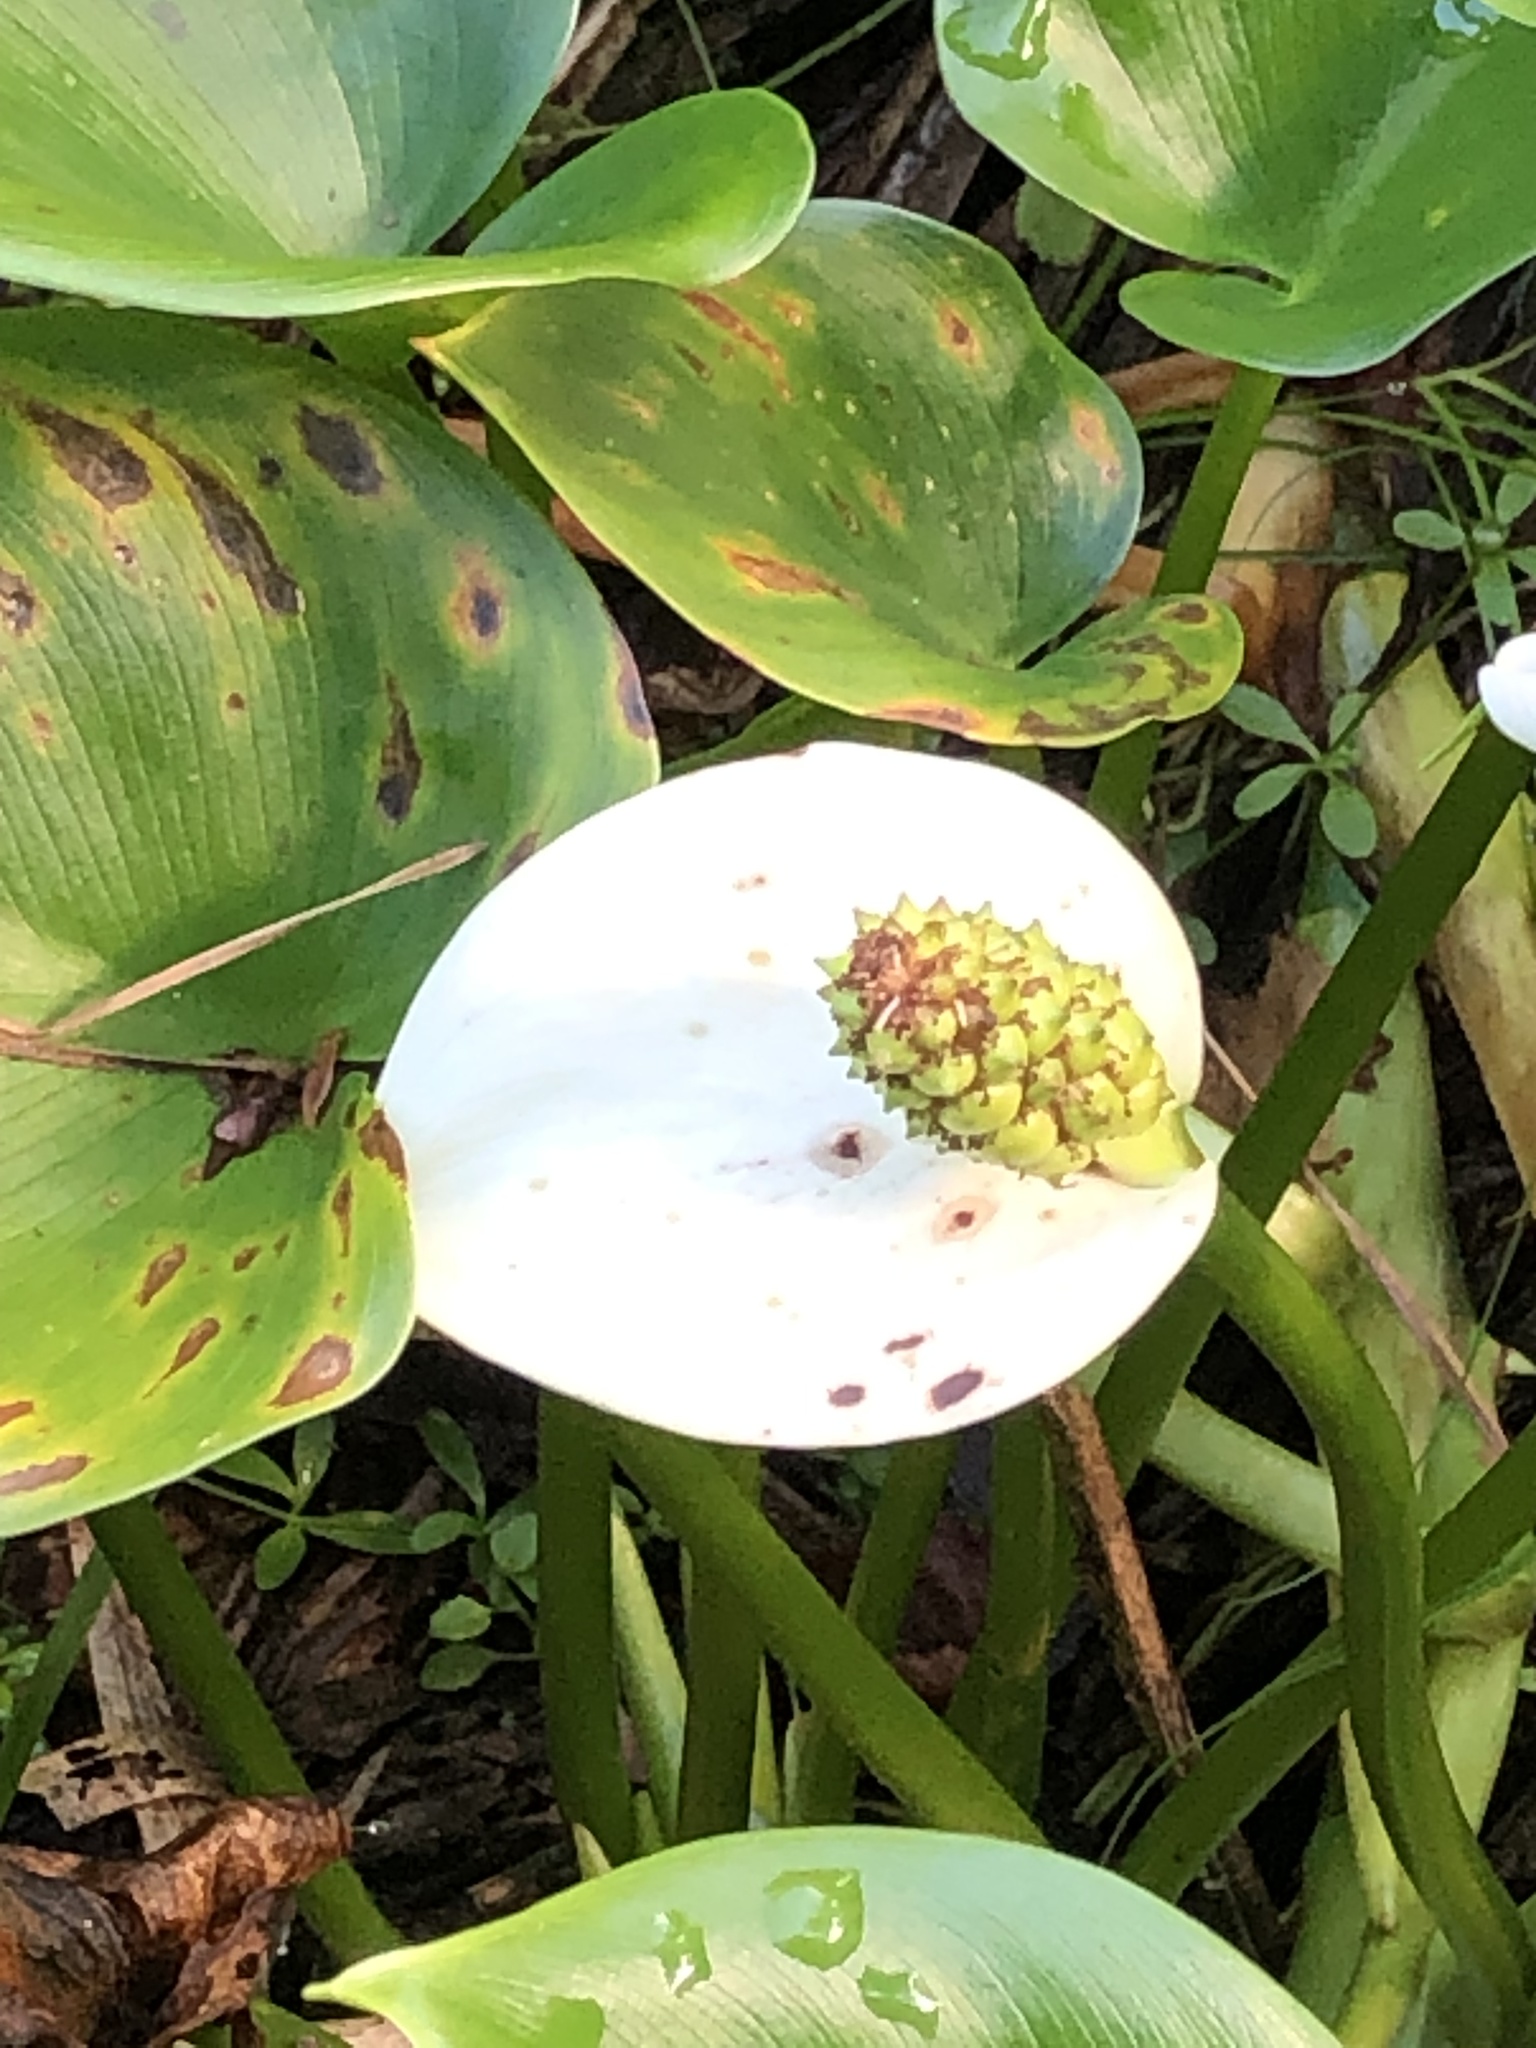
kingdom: Plantae
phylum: Tracheophyta
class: Liliopsida
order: Alismatales
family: Araceae
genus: Calla
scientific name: Calla palustris
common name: Bog arum
